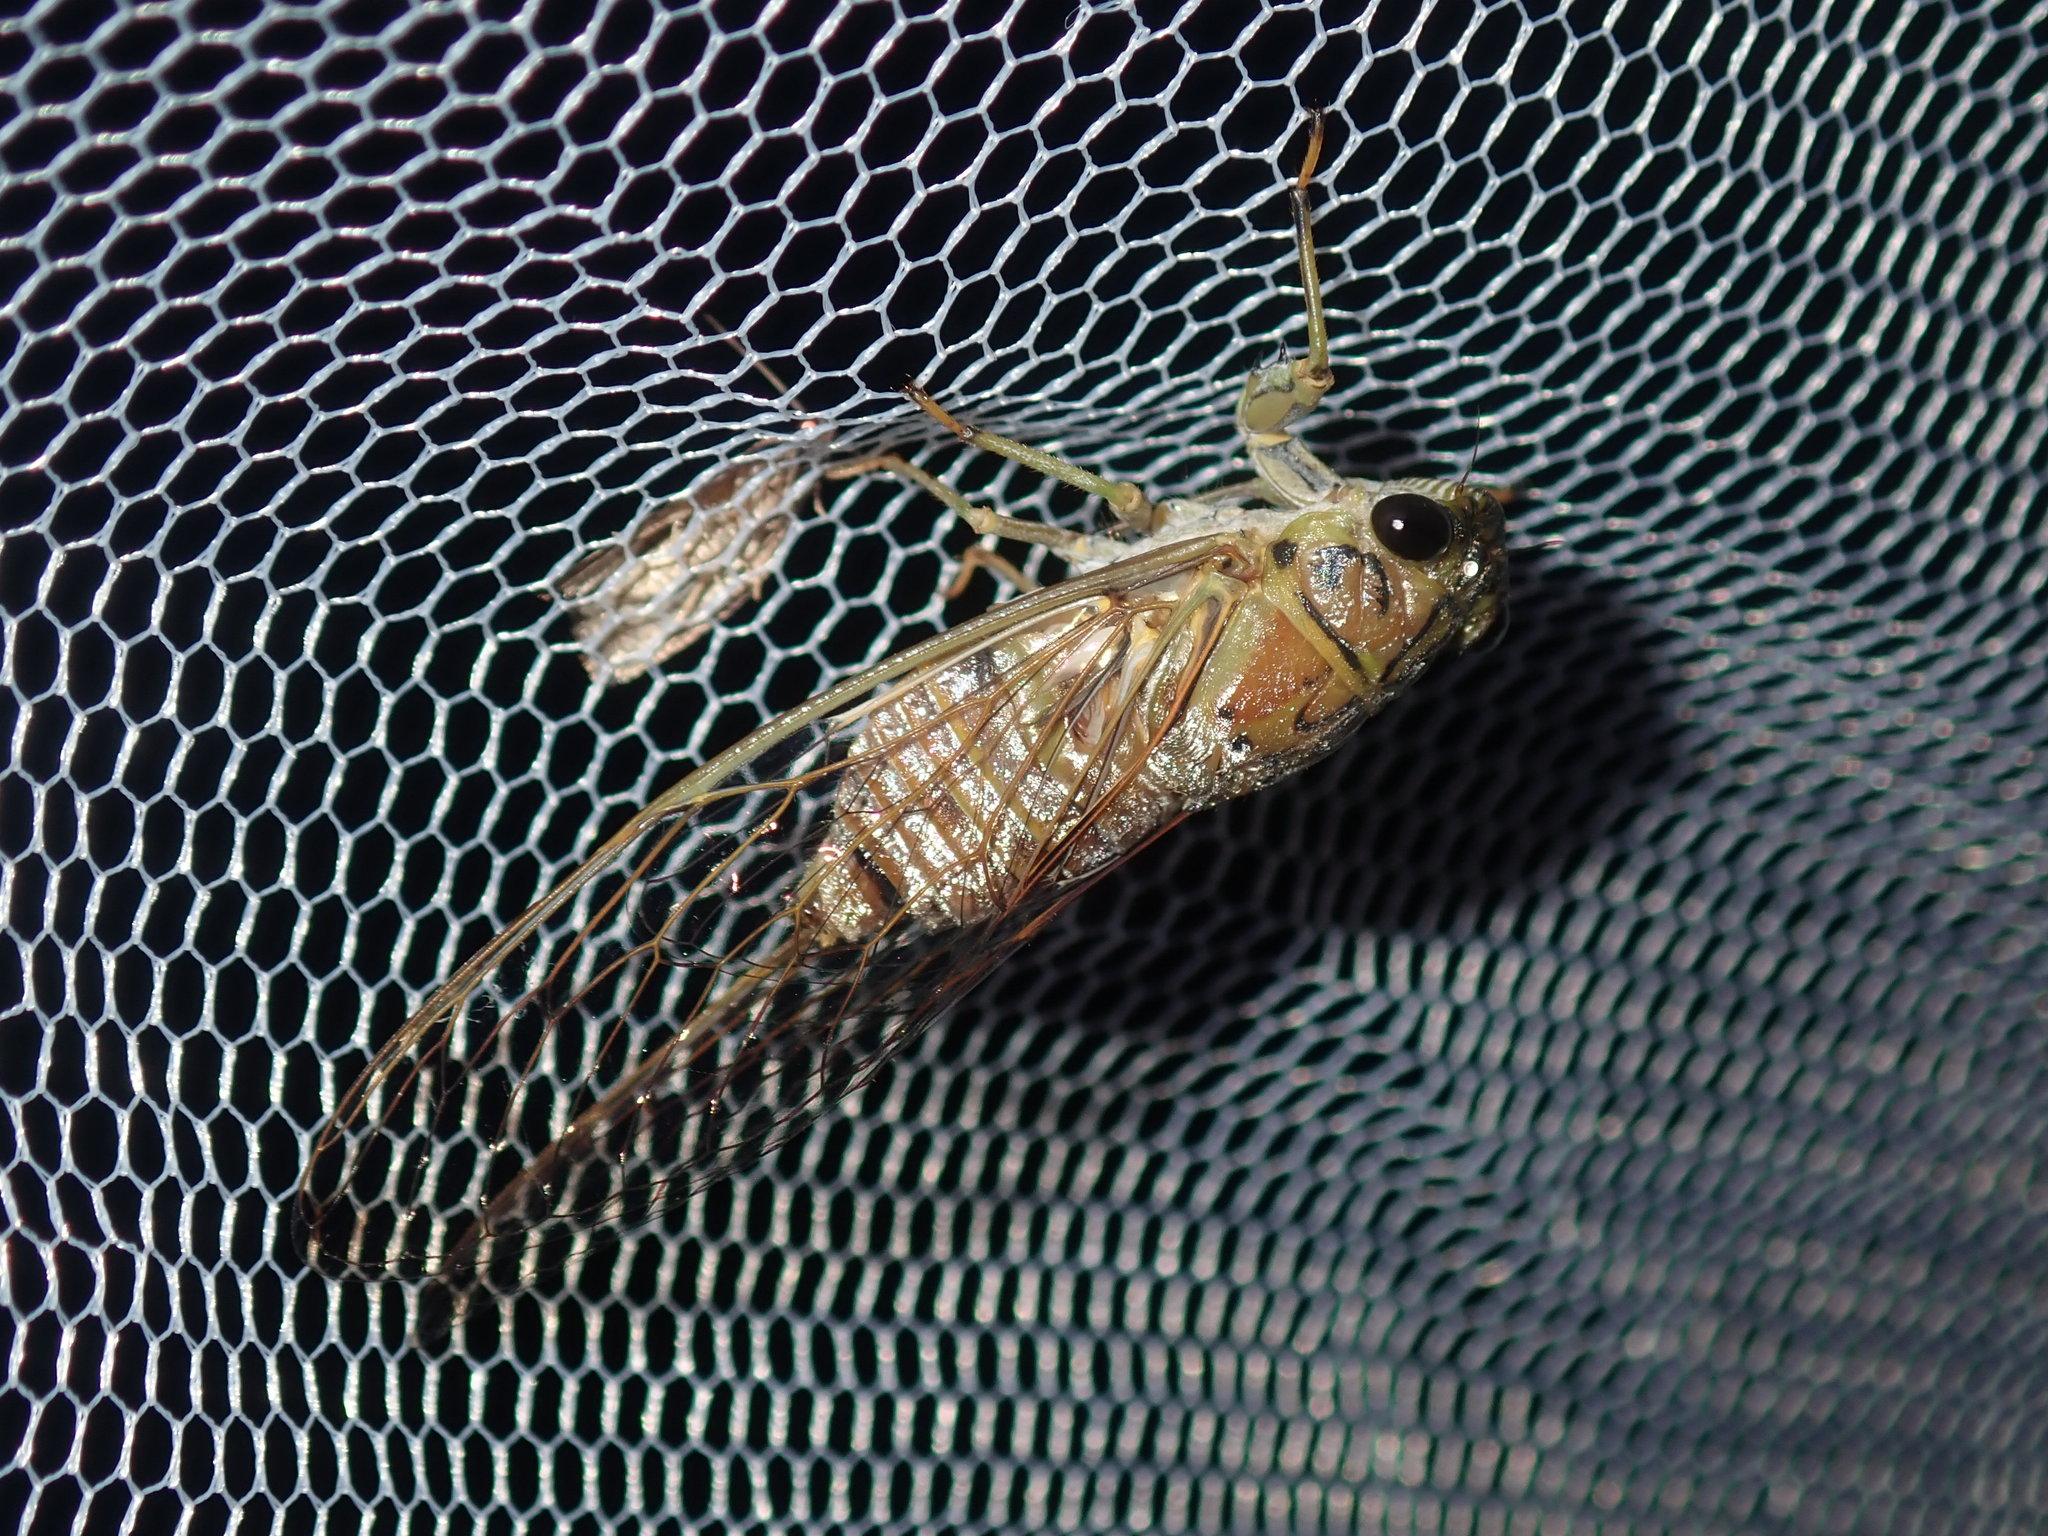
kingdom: Animalia
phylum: Arthropoda
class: Insecta
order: Hemiptera
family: Cicadidae
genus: Tamasa
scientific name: Tamasa tristigma
